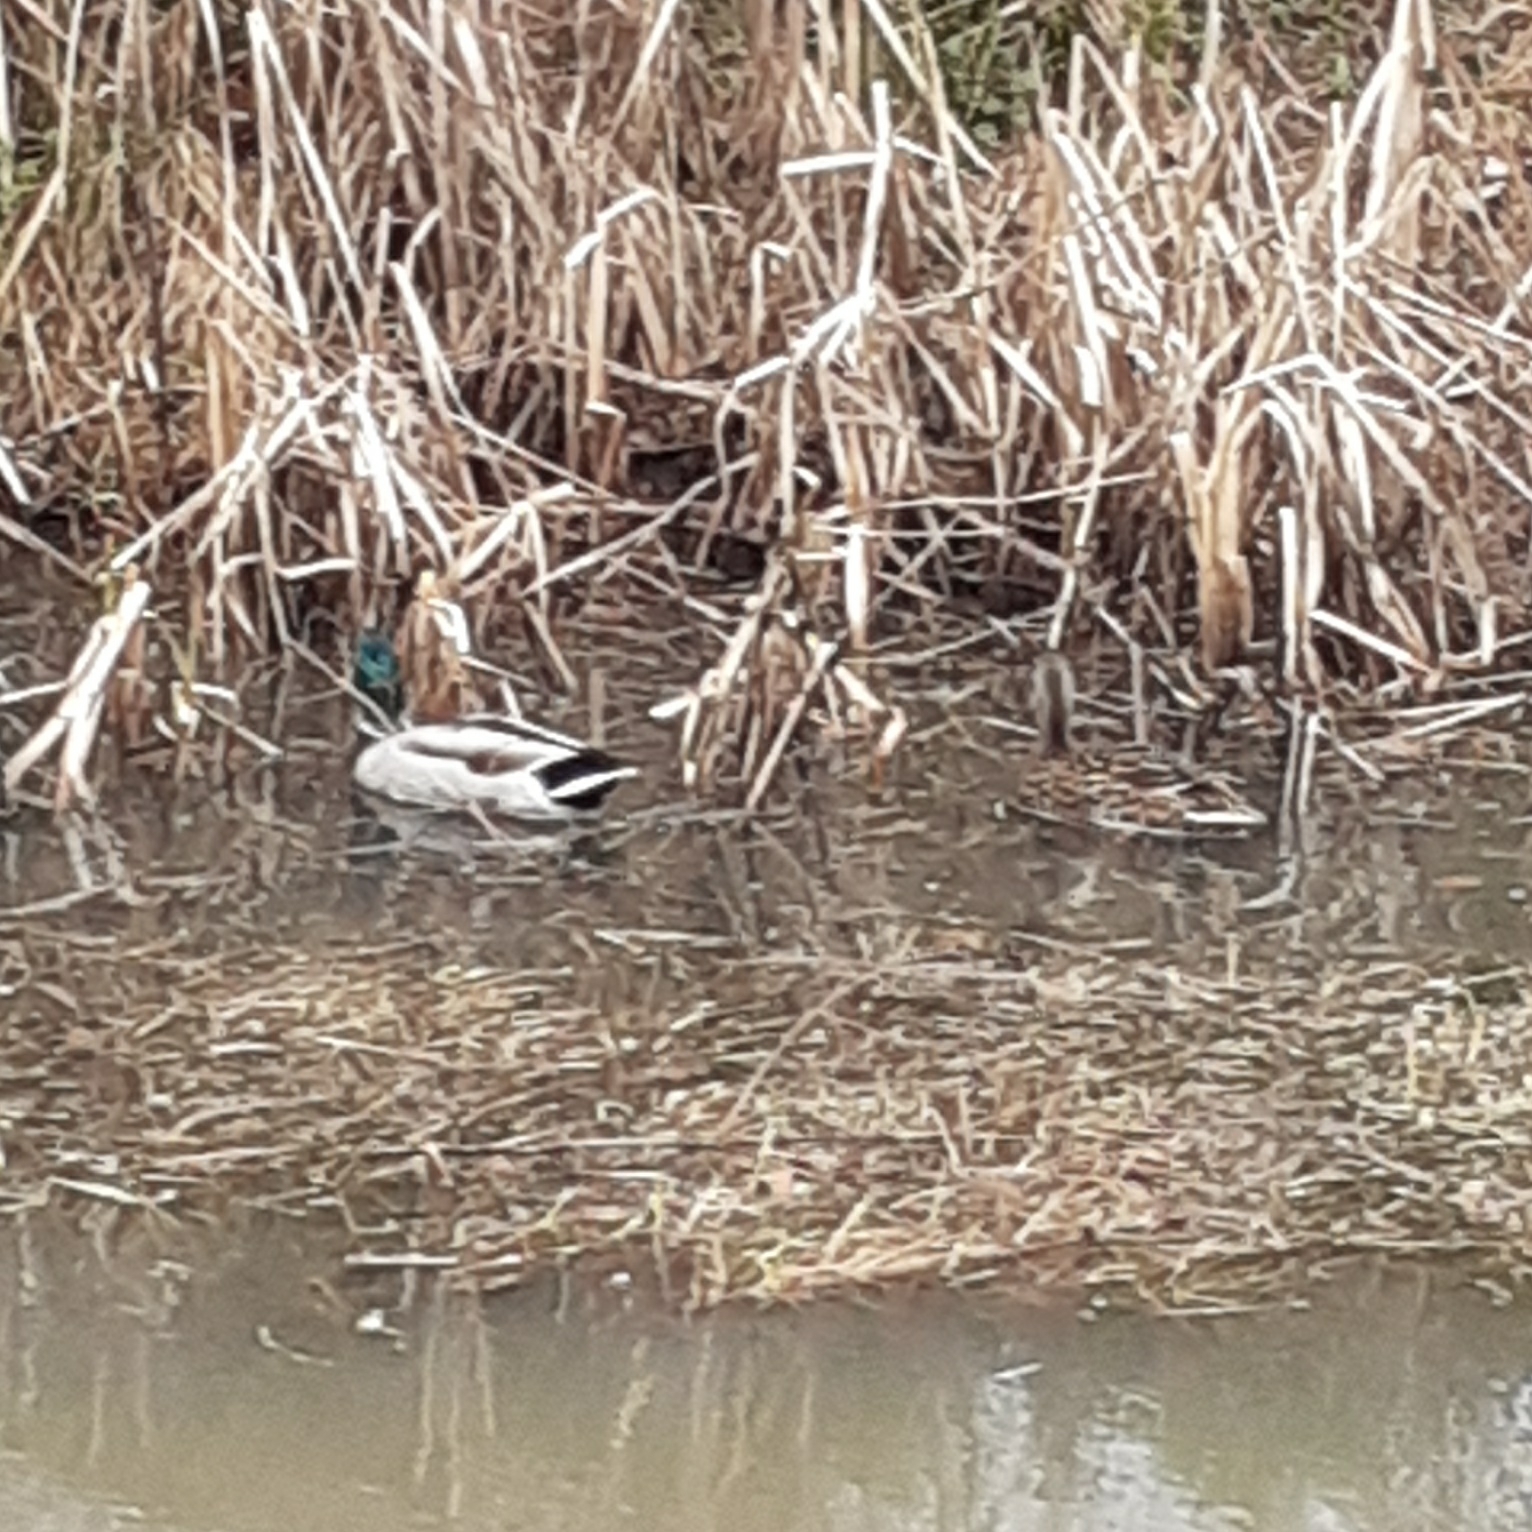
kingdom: Animalia
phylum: Chordata
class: Aves
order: Anseriformes
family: Anatidae
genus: Anas
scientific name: Anas platyrhynchos
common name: Mallard
